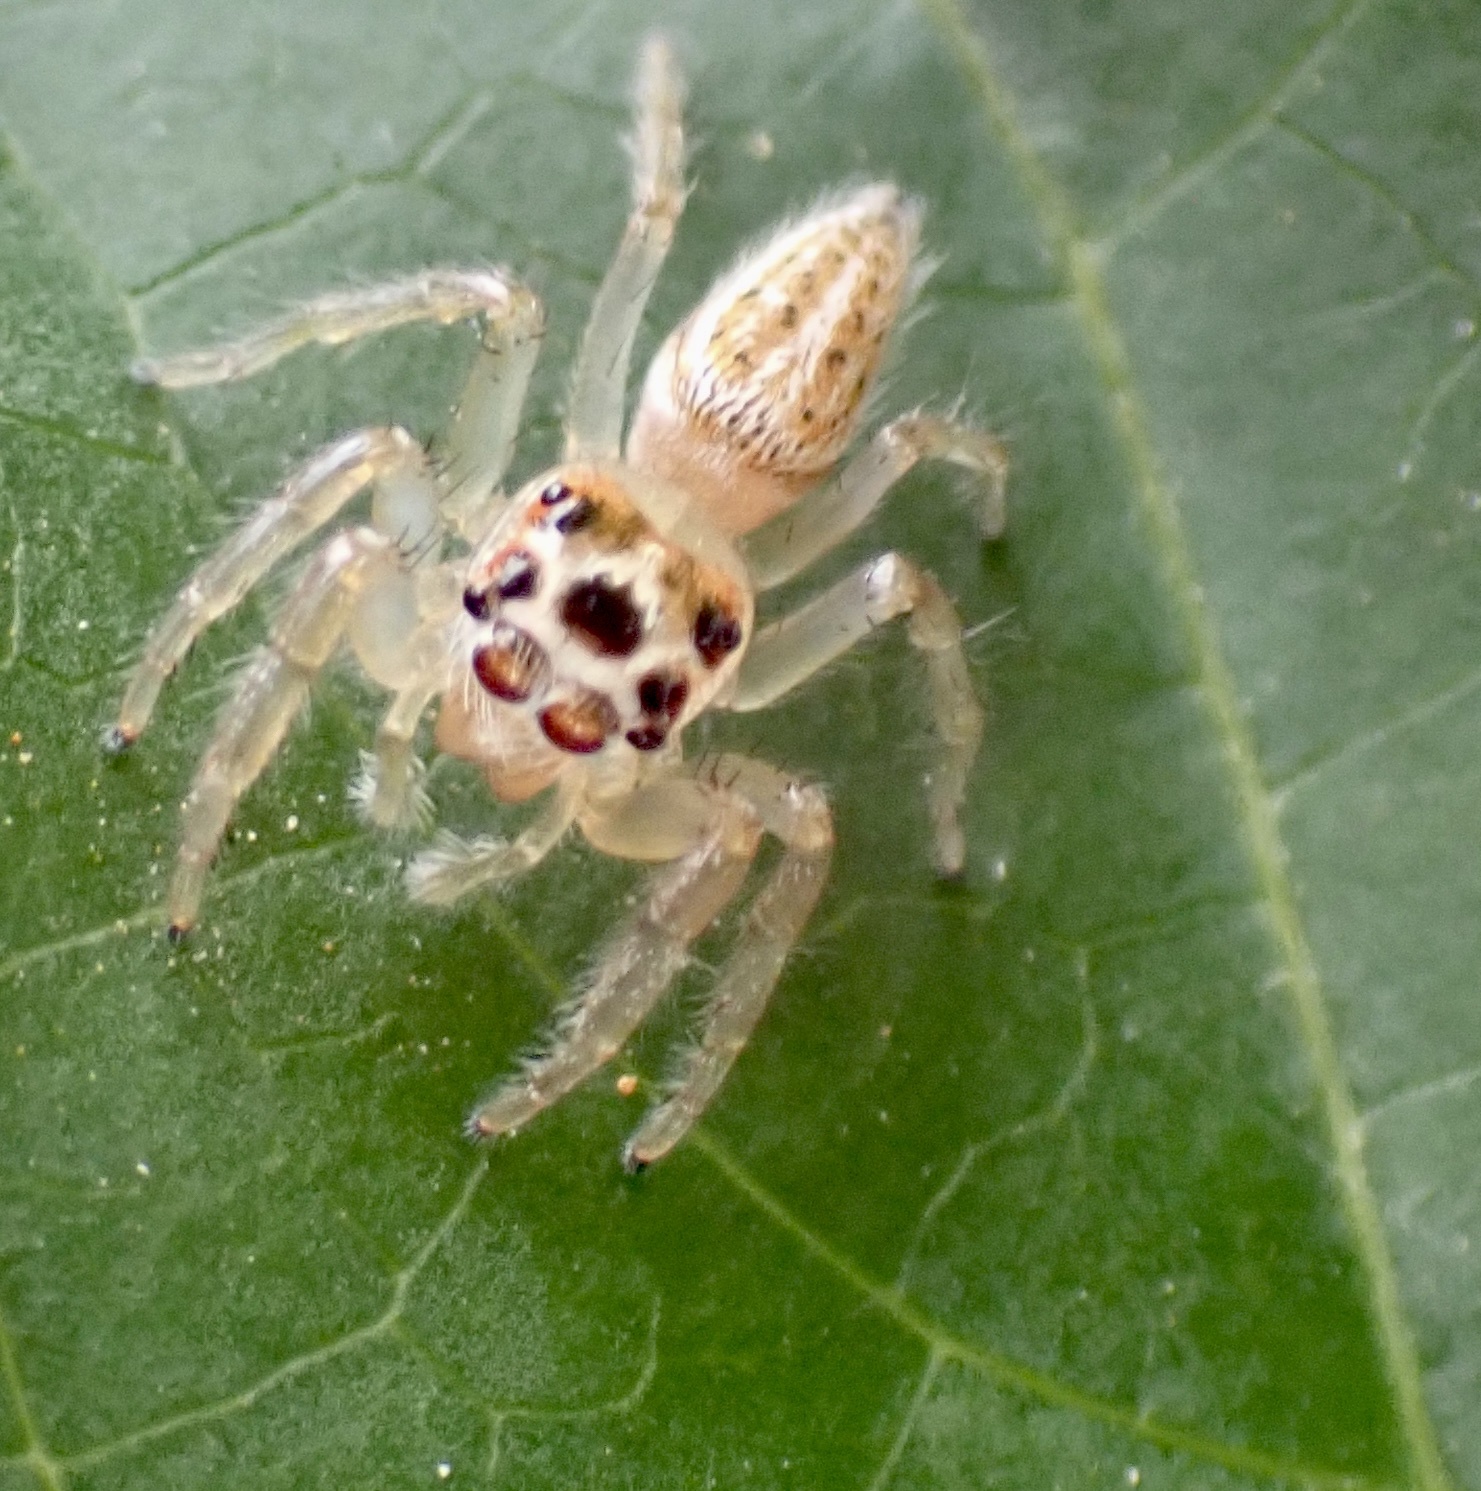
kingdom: Animalia
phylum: Arthropoda
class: Arachnida
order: Araneae
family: Salticidae
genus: Colonus
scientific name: Colonus sylvanus
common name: Jumping spiders
